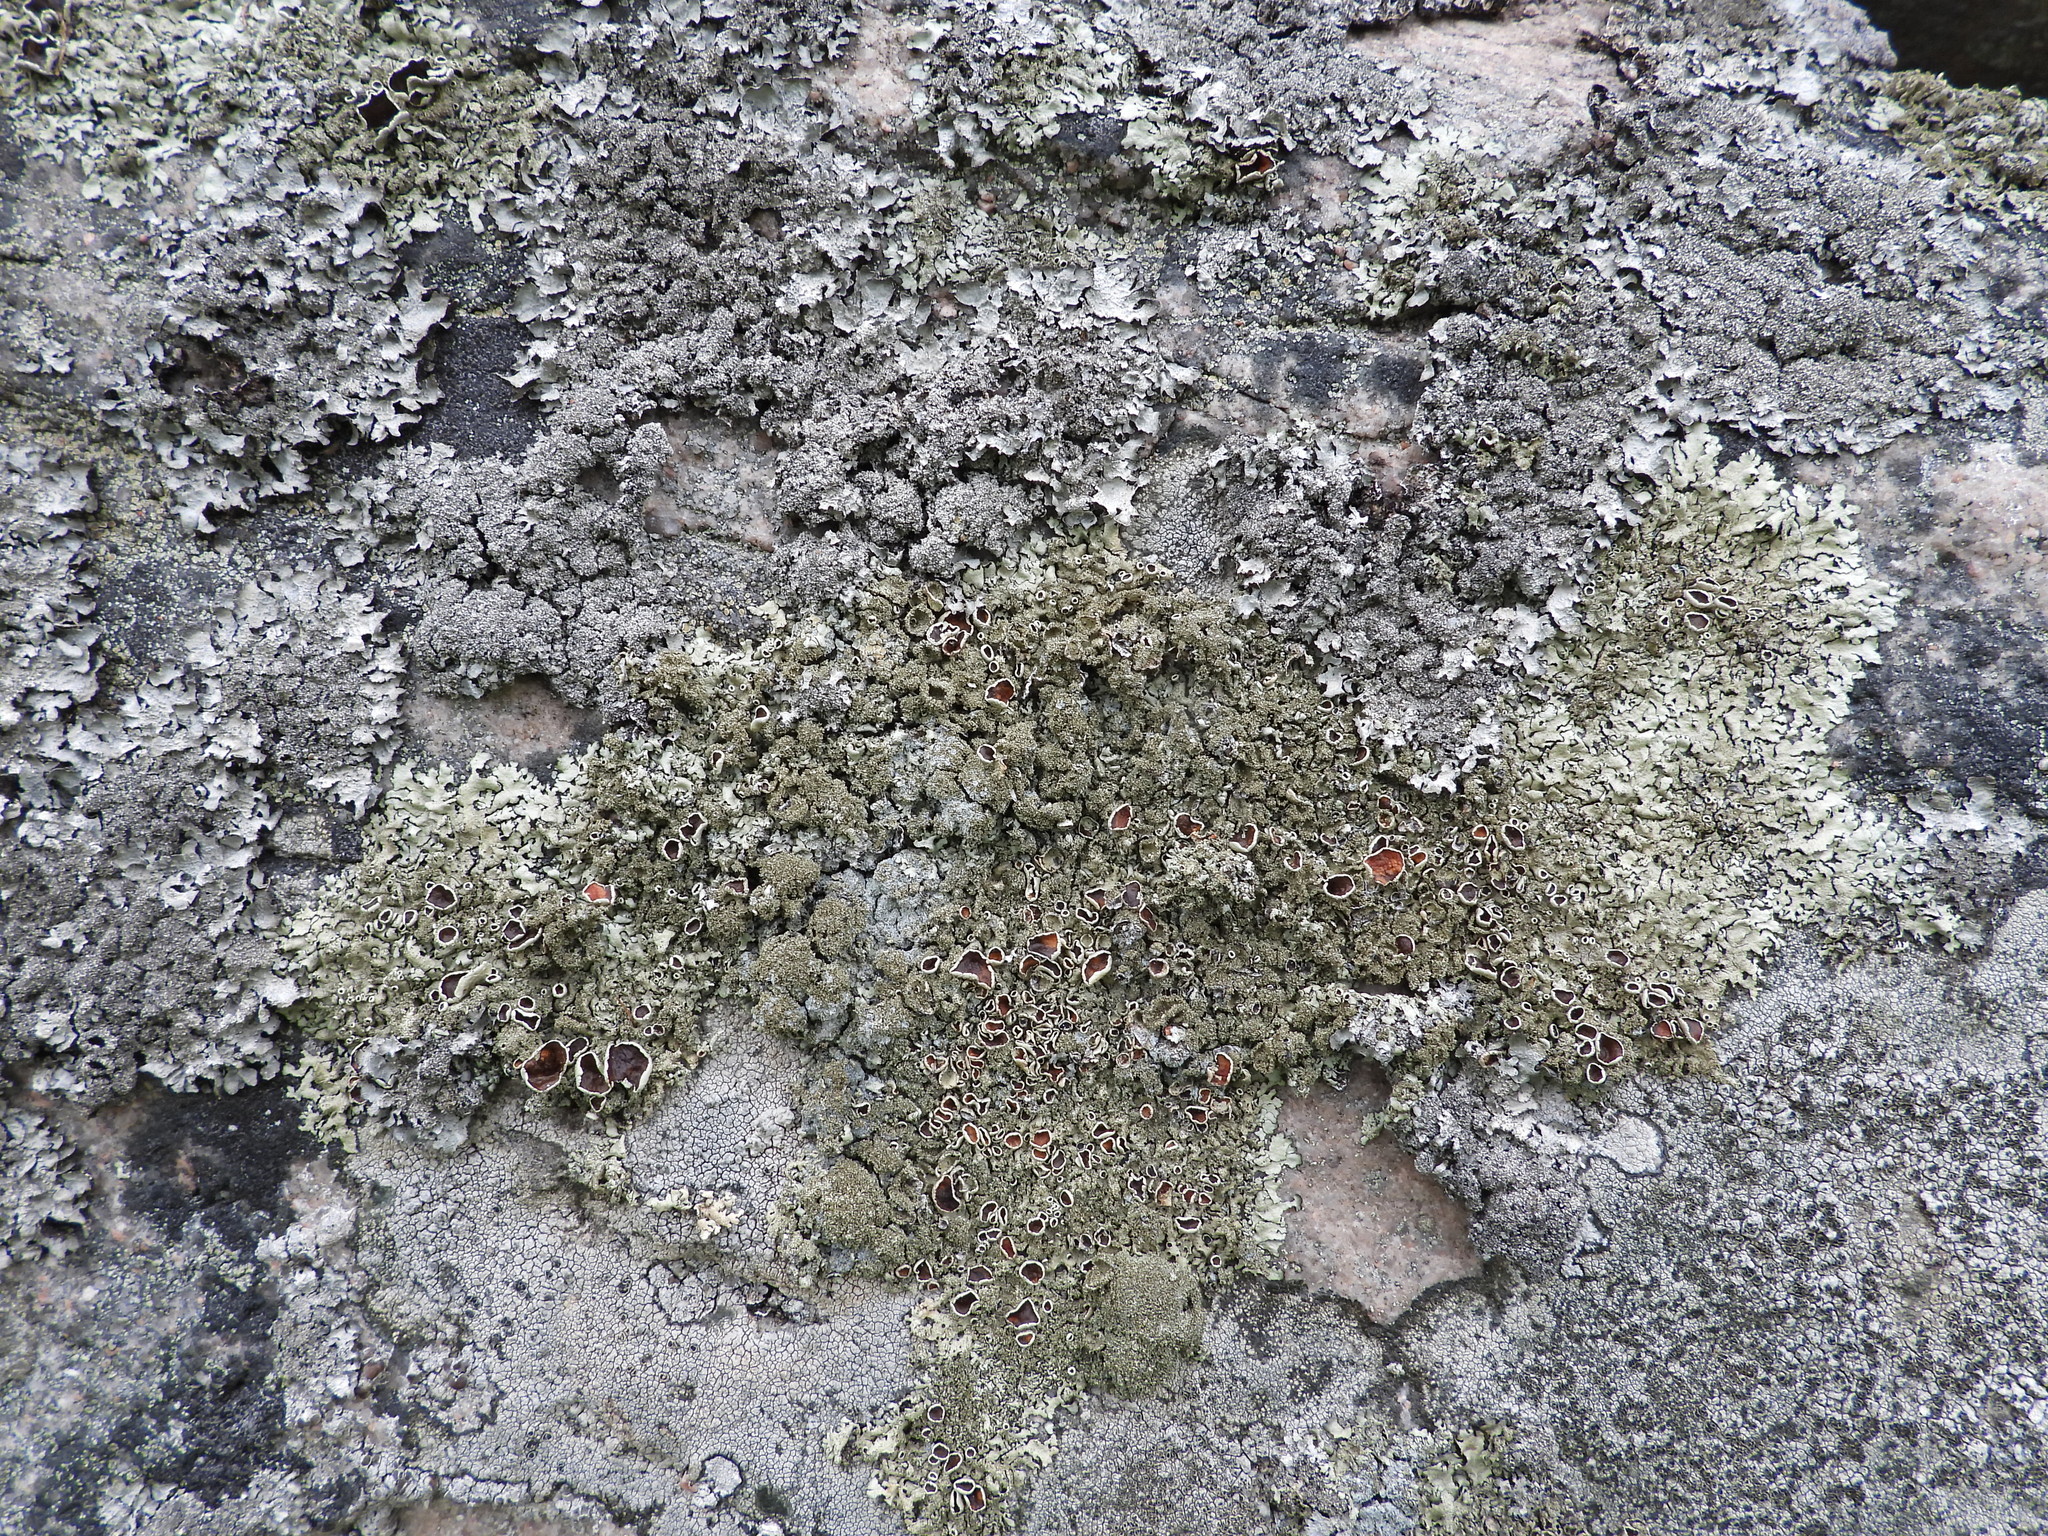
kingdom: Fungi
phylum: Ascomycota
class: Lecanoromycetes
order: Lecanorales
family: Parmeliaceae
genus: Xanthoparmelia
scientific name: Xanthoparmelia conspersa
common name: Peppered rock shield
